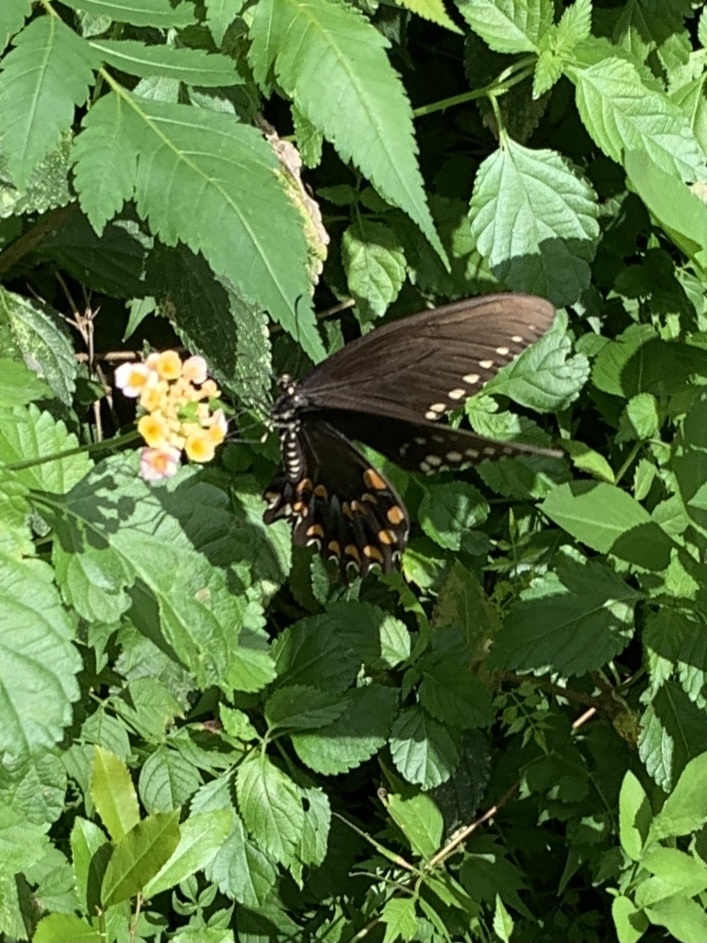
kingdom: Animalia
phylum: Arthropoda
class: Insecta
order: Lepidoptera
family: Papilionidae
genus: Papilio
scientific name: Papilio troilus
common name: Spicebush swallowtail
